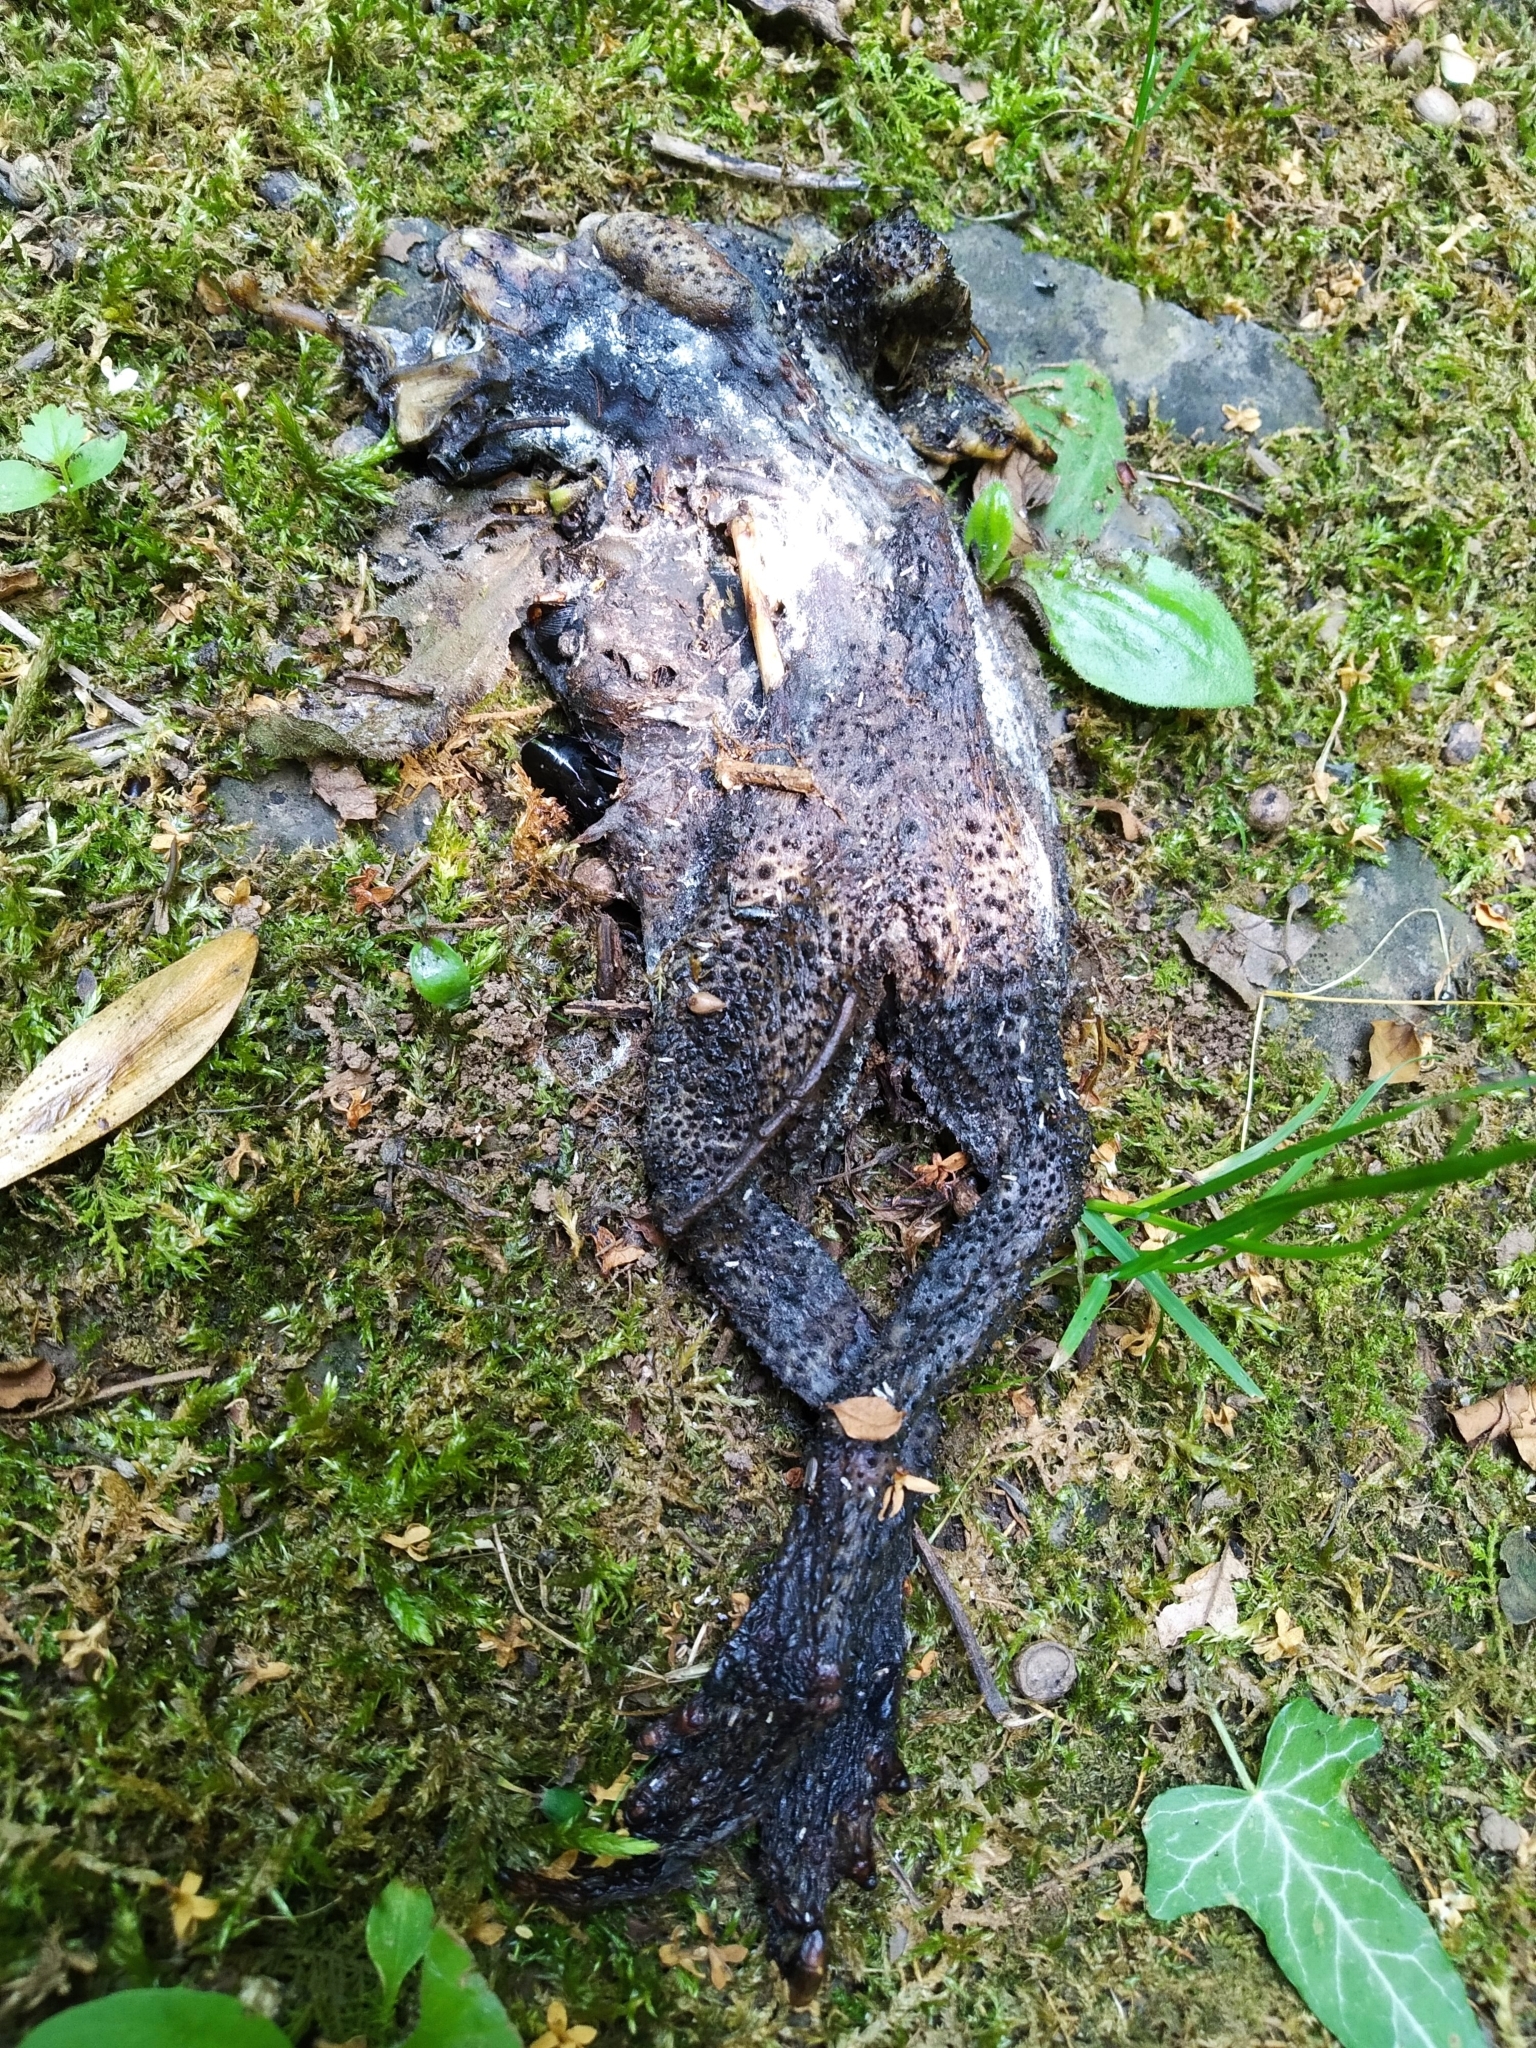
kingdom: Animalia
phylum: Chordata
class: Amphibia
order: Anura
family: Bufonidae
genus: Bufo
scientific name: Bufo bufo
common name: Common toad
